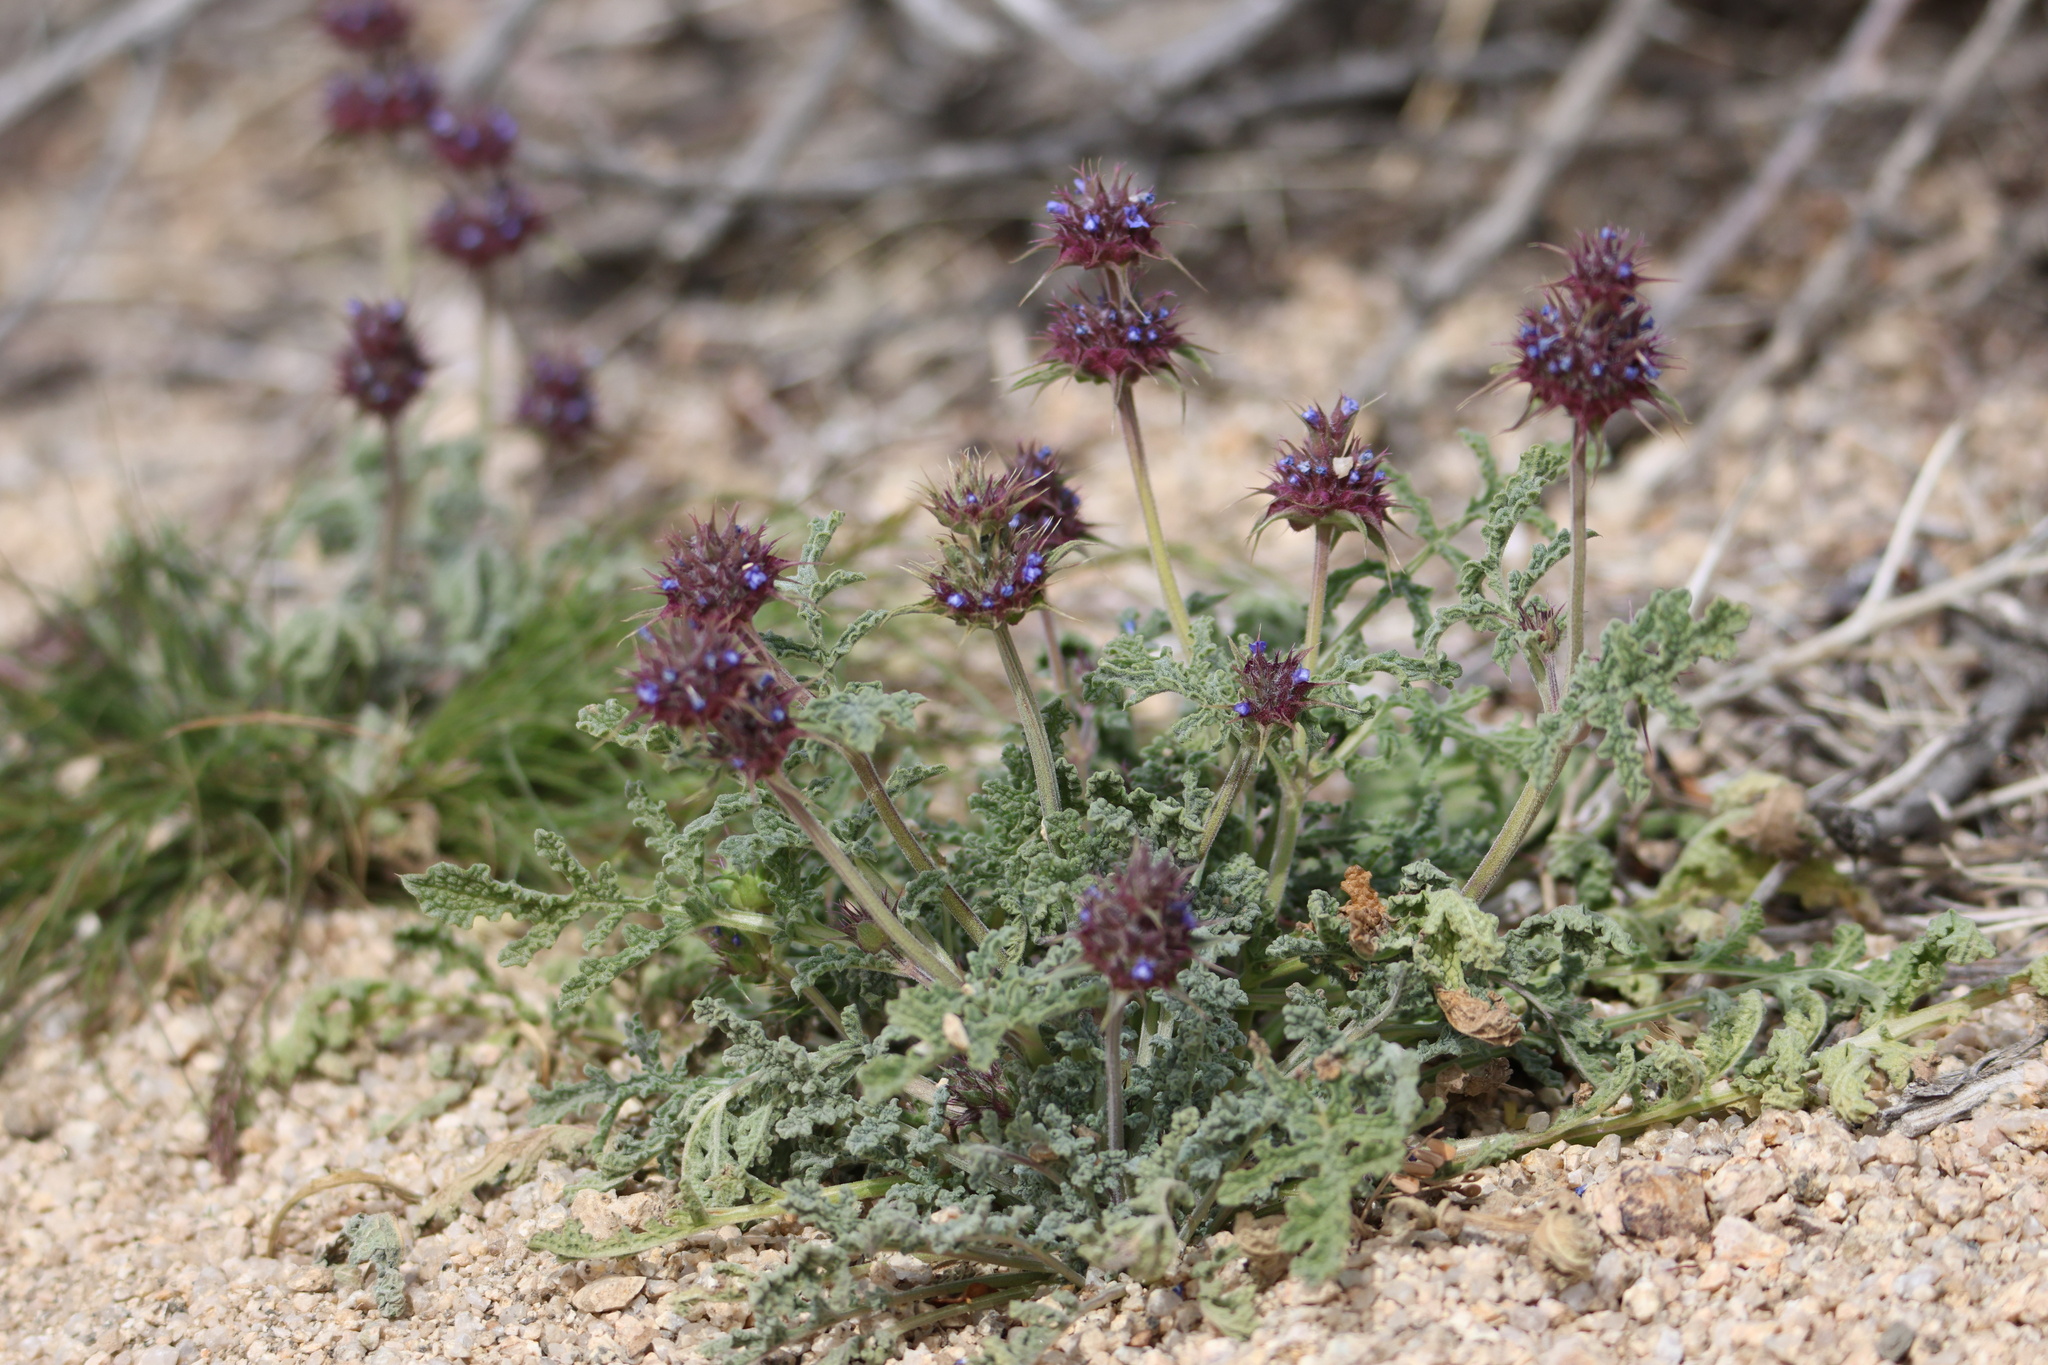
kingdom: Plantae
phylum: Tracheophyta
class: Magnoliopsida
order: Lamiales
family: Lamiaceae
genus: Salvia
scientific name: Salvia columbariae
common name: Chia
